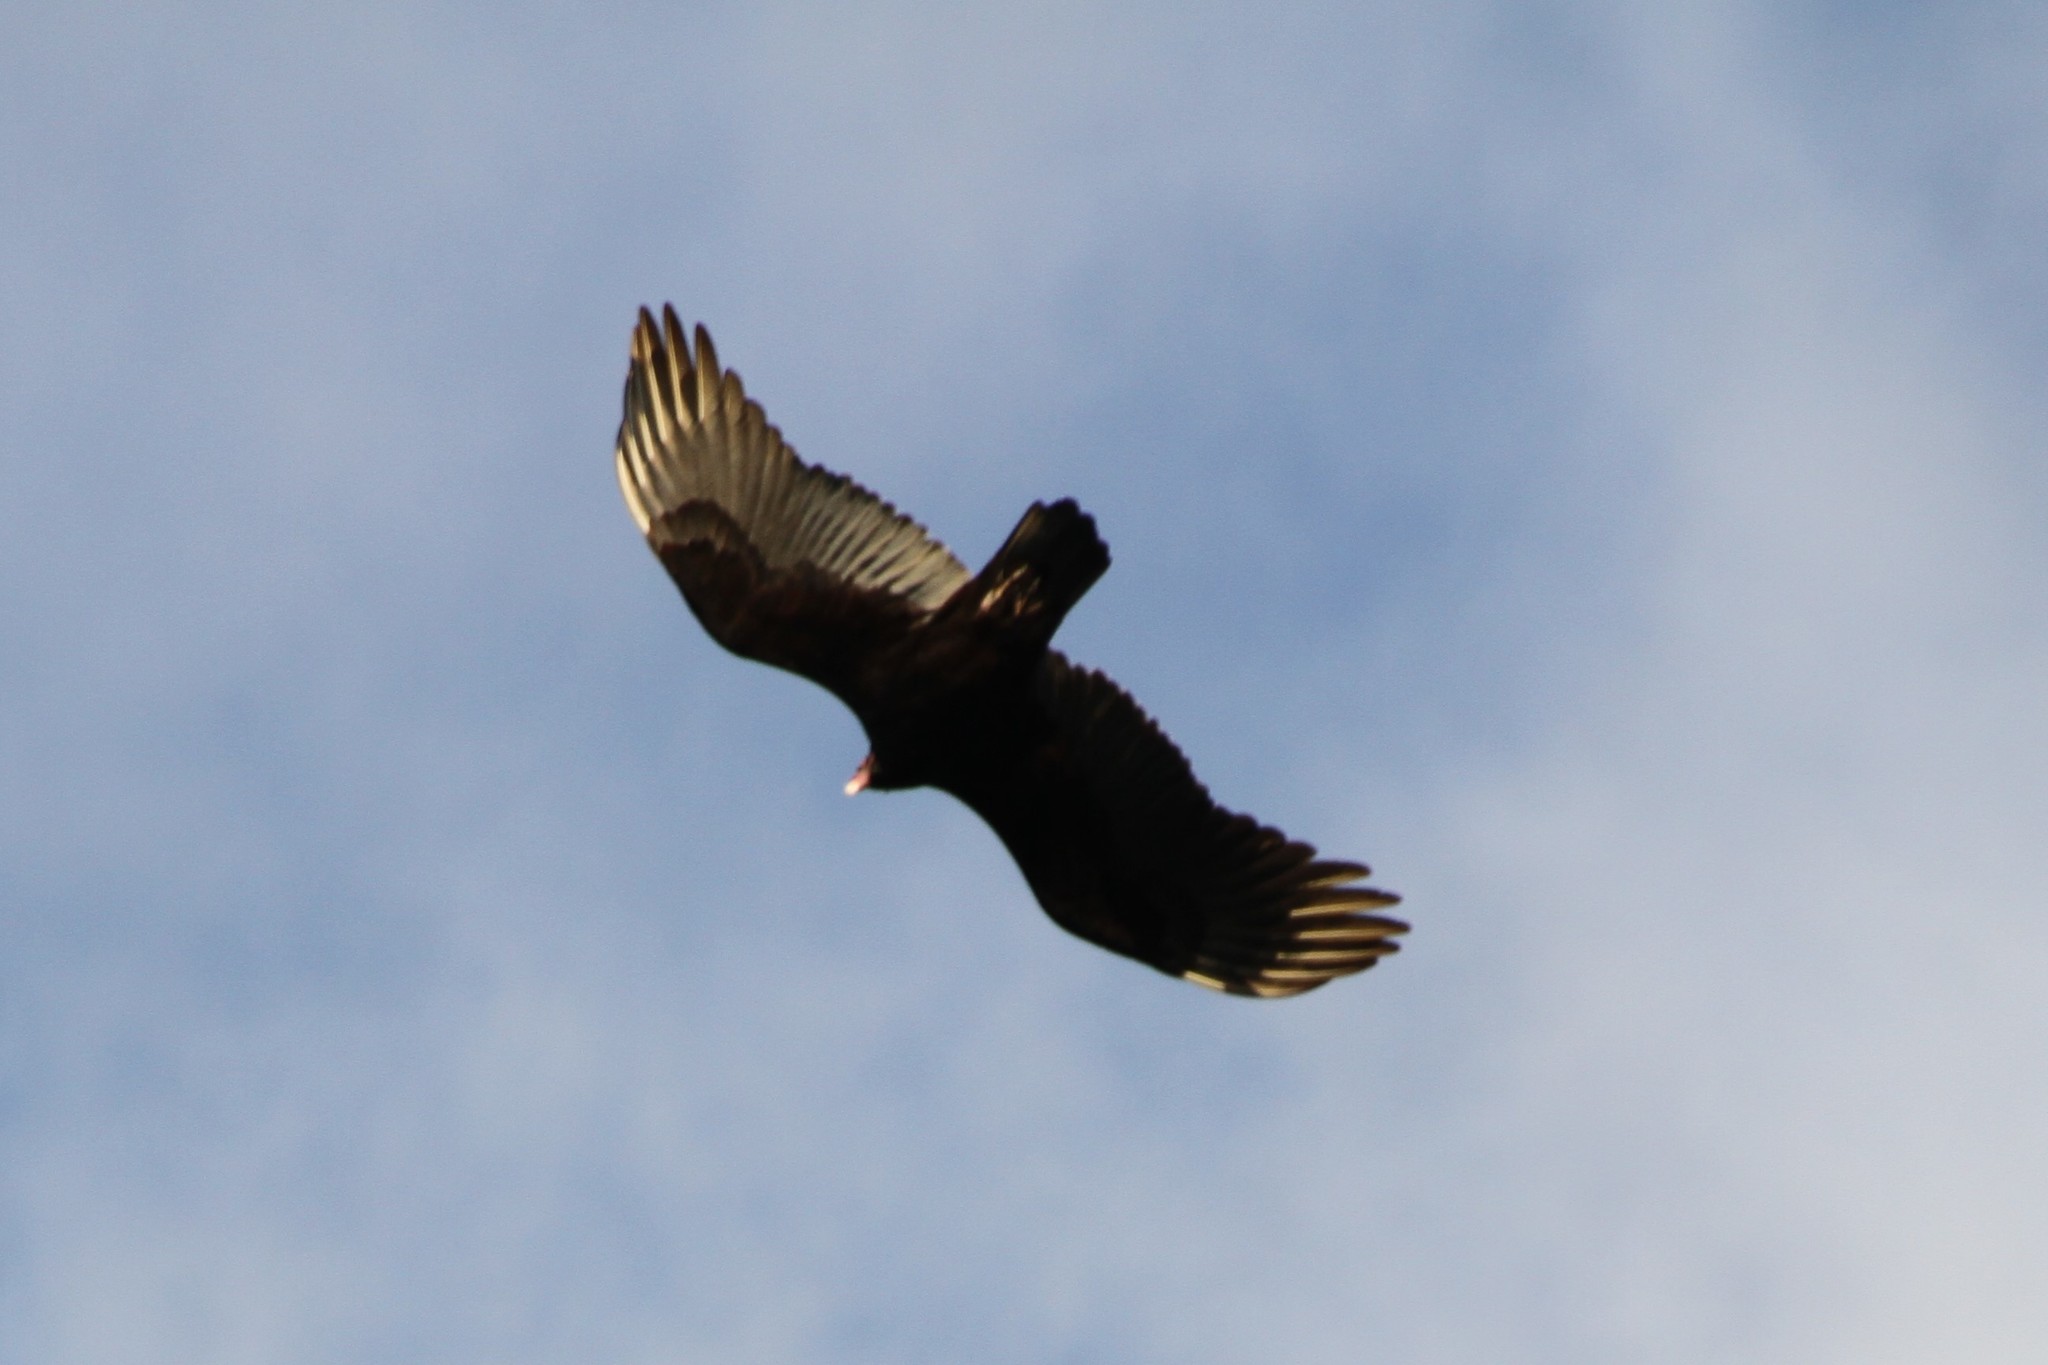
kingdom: Animalia
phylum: Chordata
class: Aves
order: Accipitriformes
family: Cathartidae
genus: Cathartes
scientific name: Cathartes aura
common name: Turkey vulture
